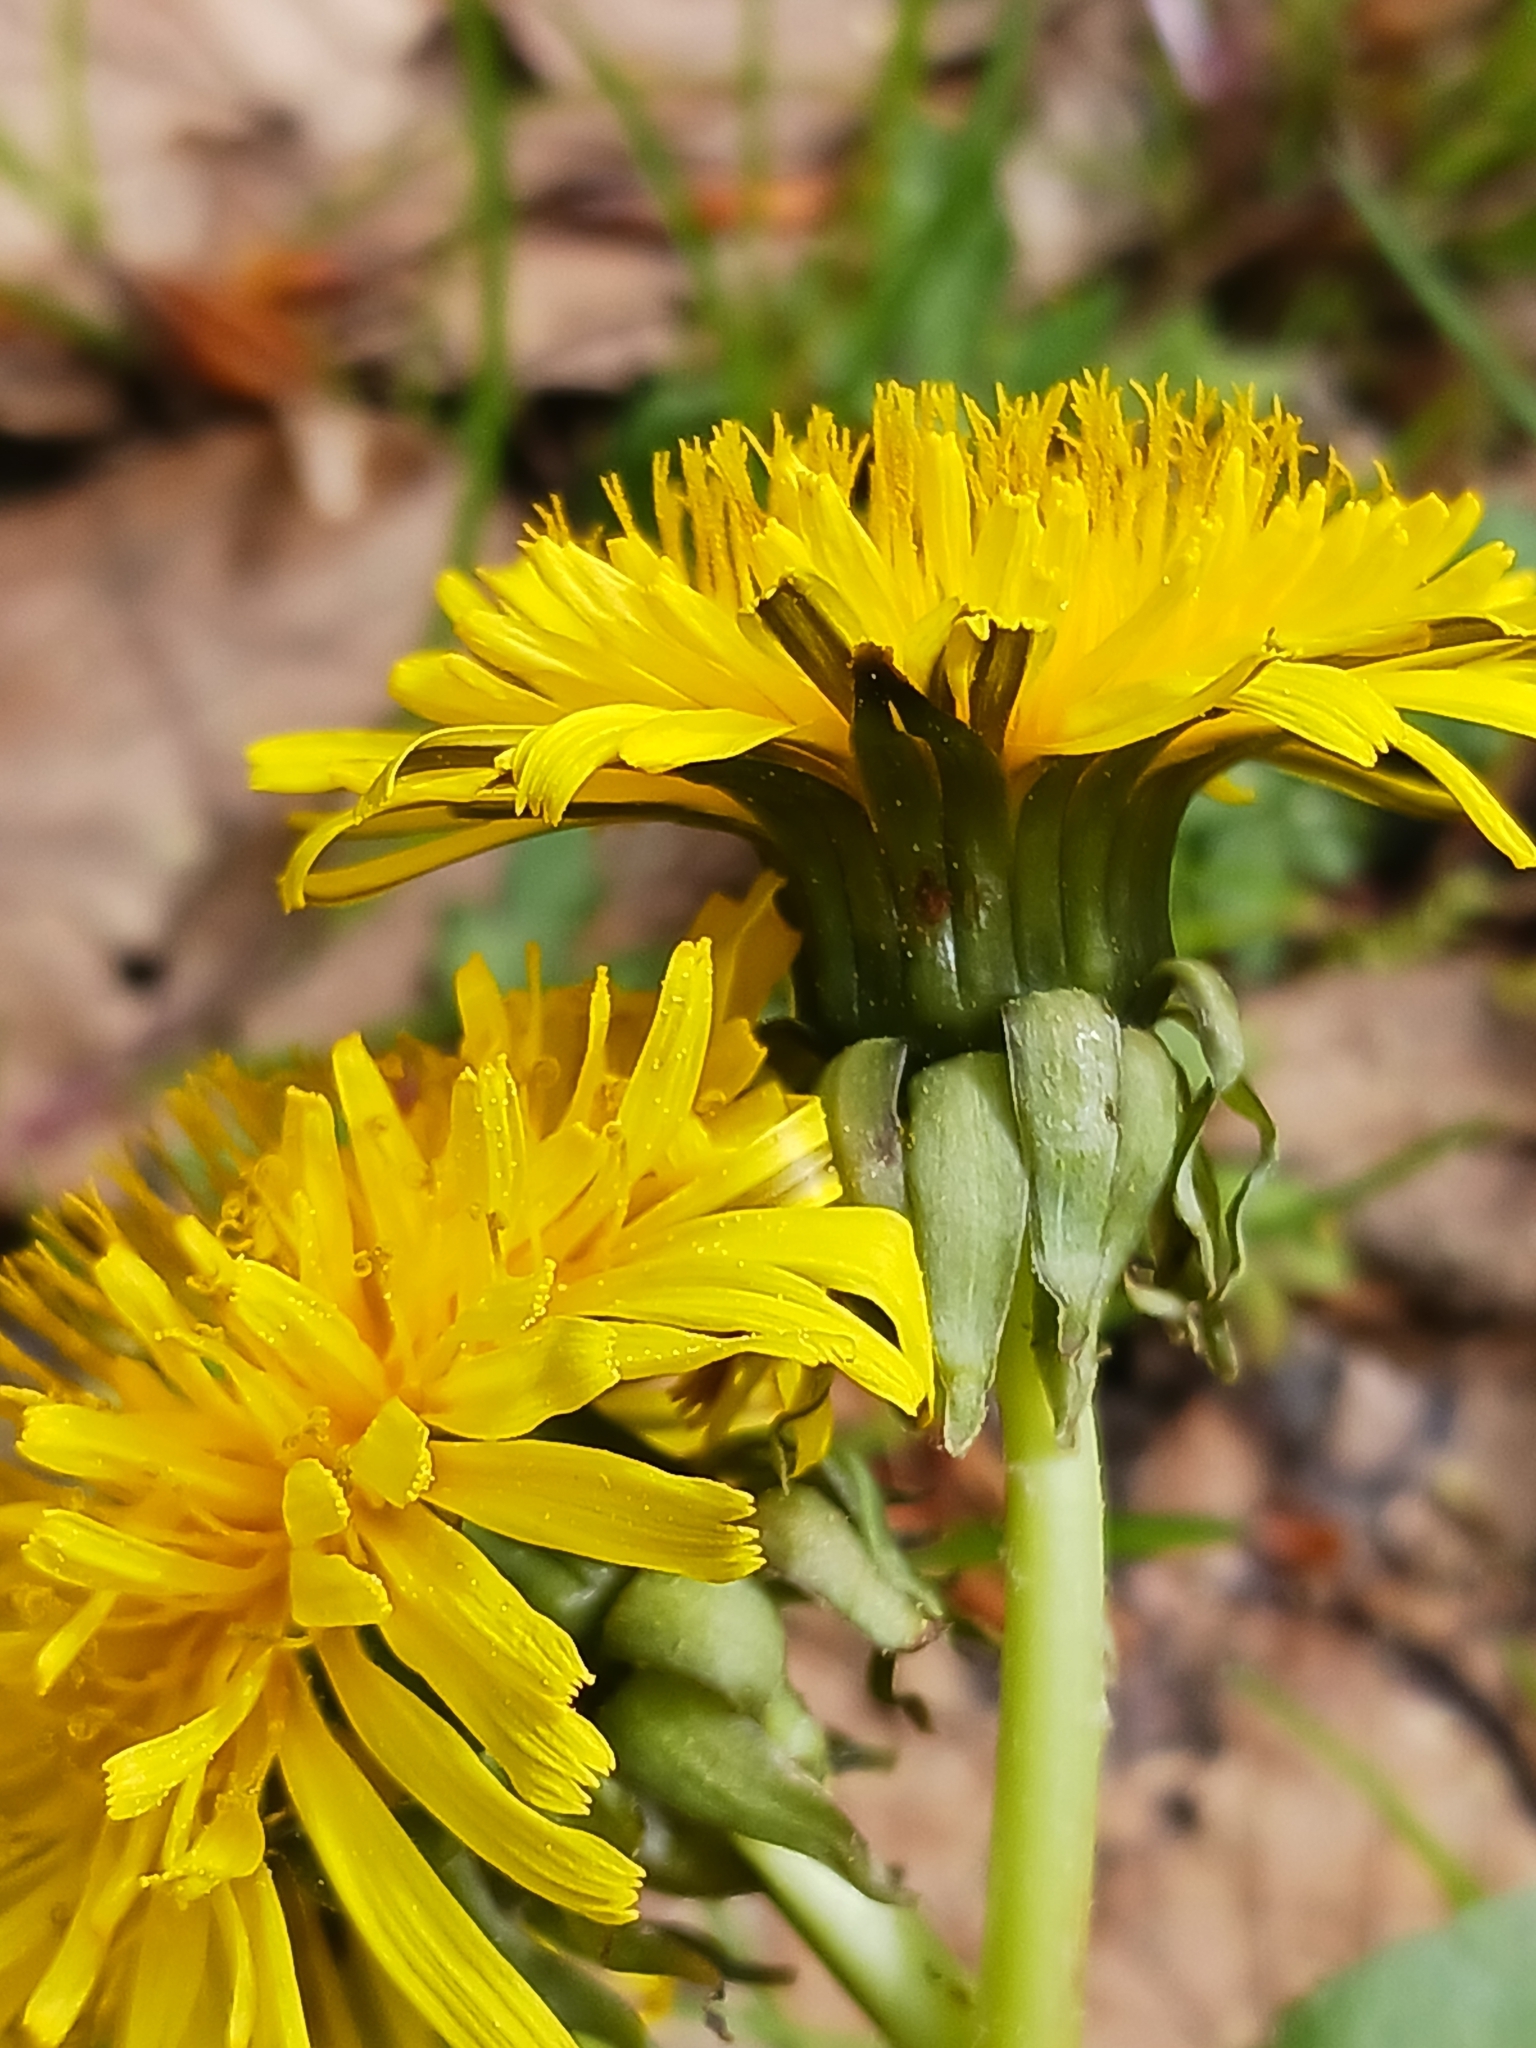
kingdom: Plantae
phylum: Tracheophyta
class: Magnoliopsida
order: Asterales
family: Asteraceae
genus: Taraxacum
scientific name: Taraxacum
